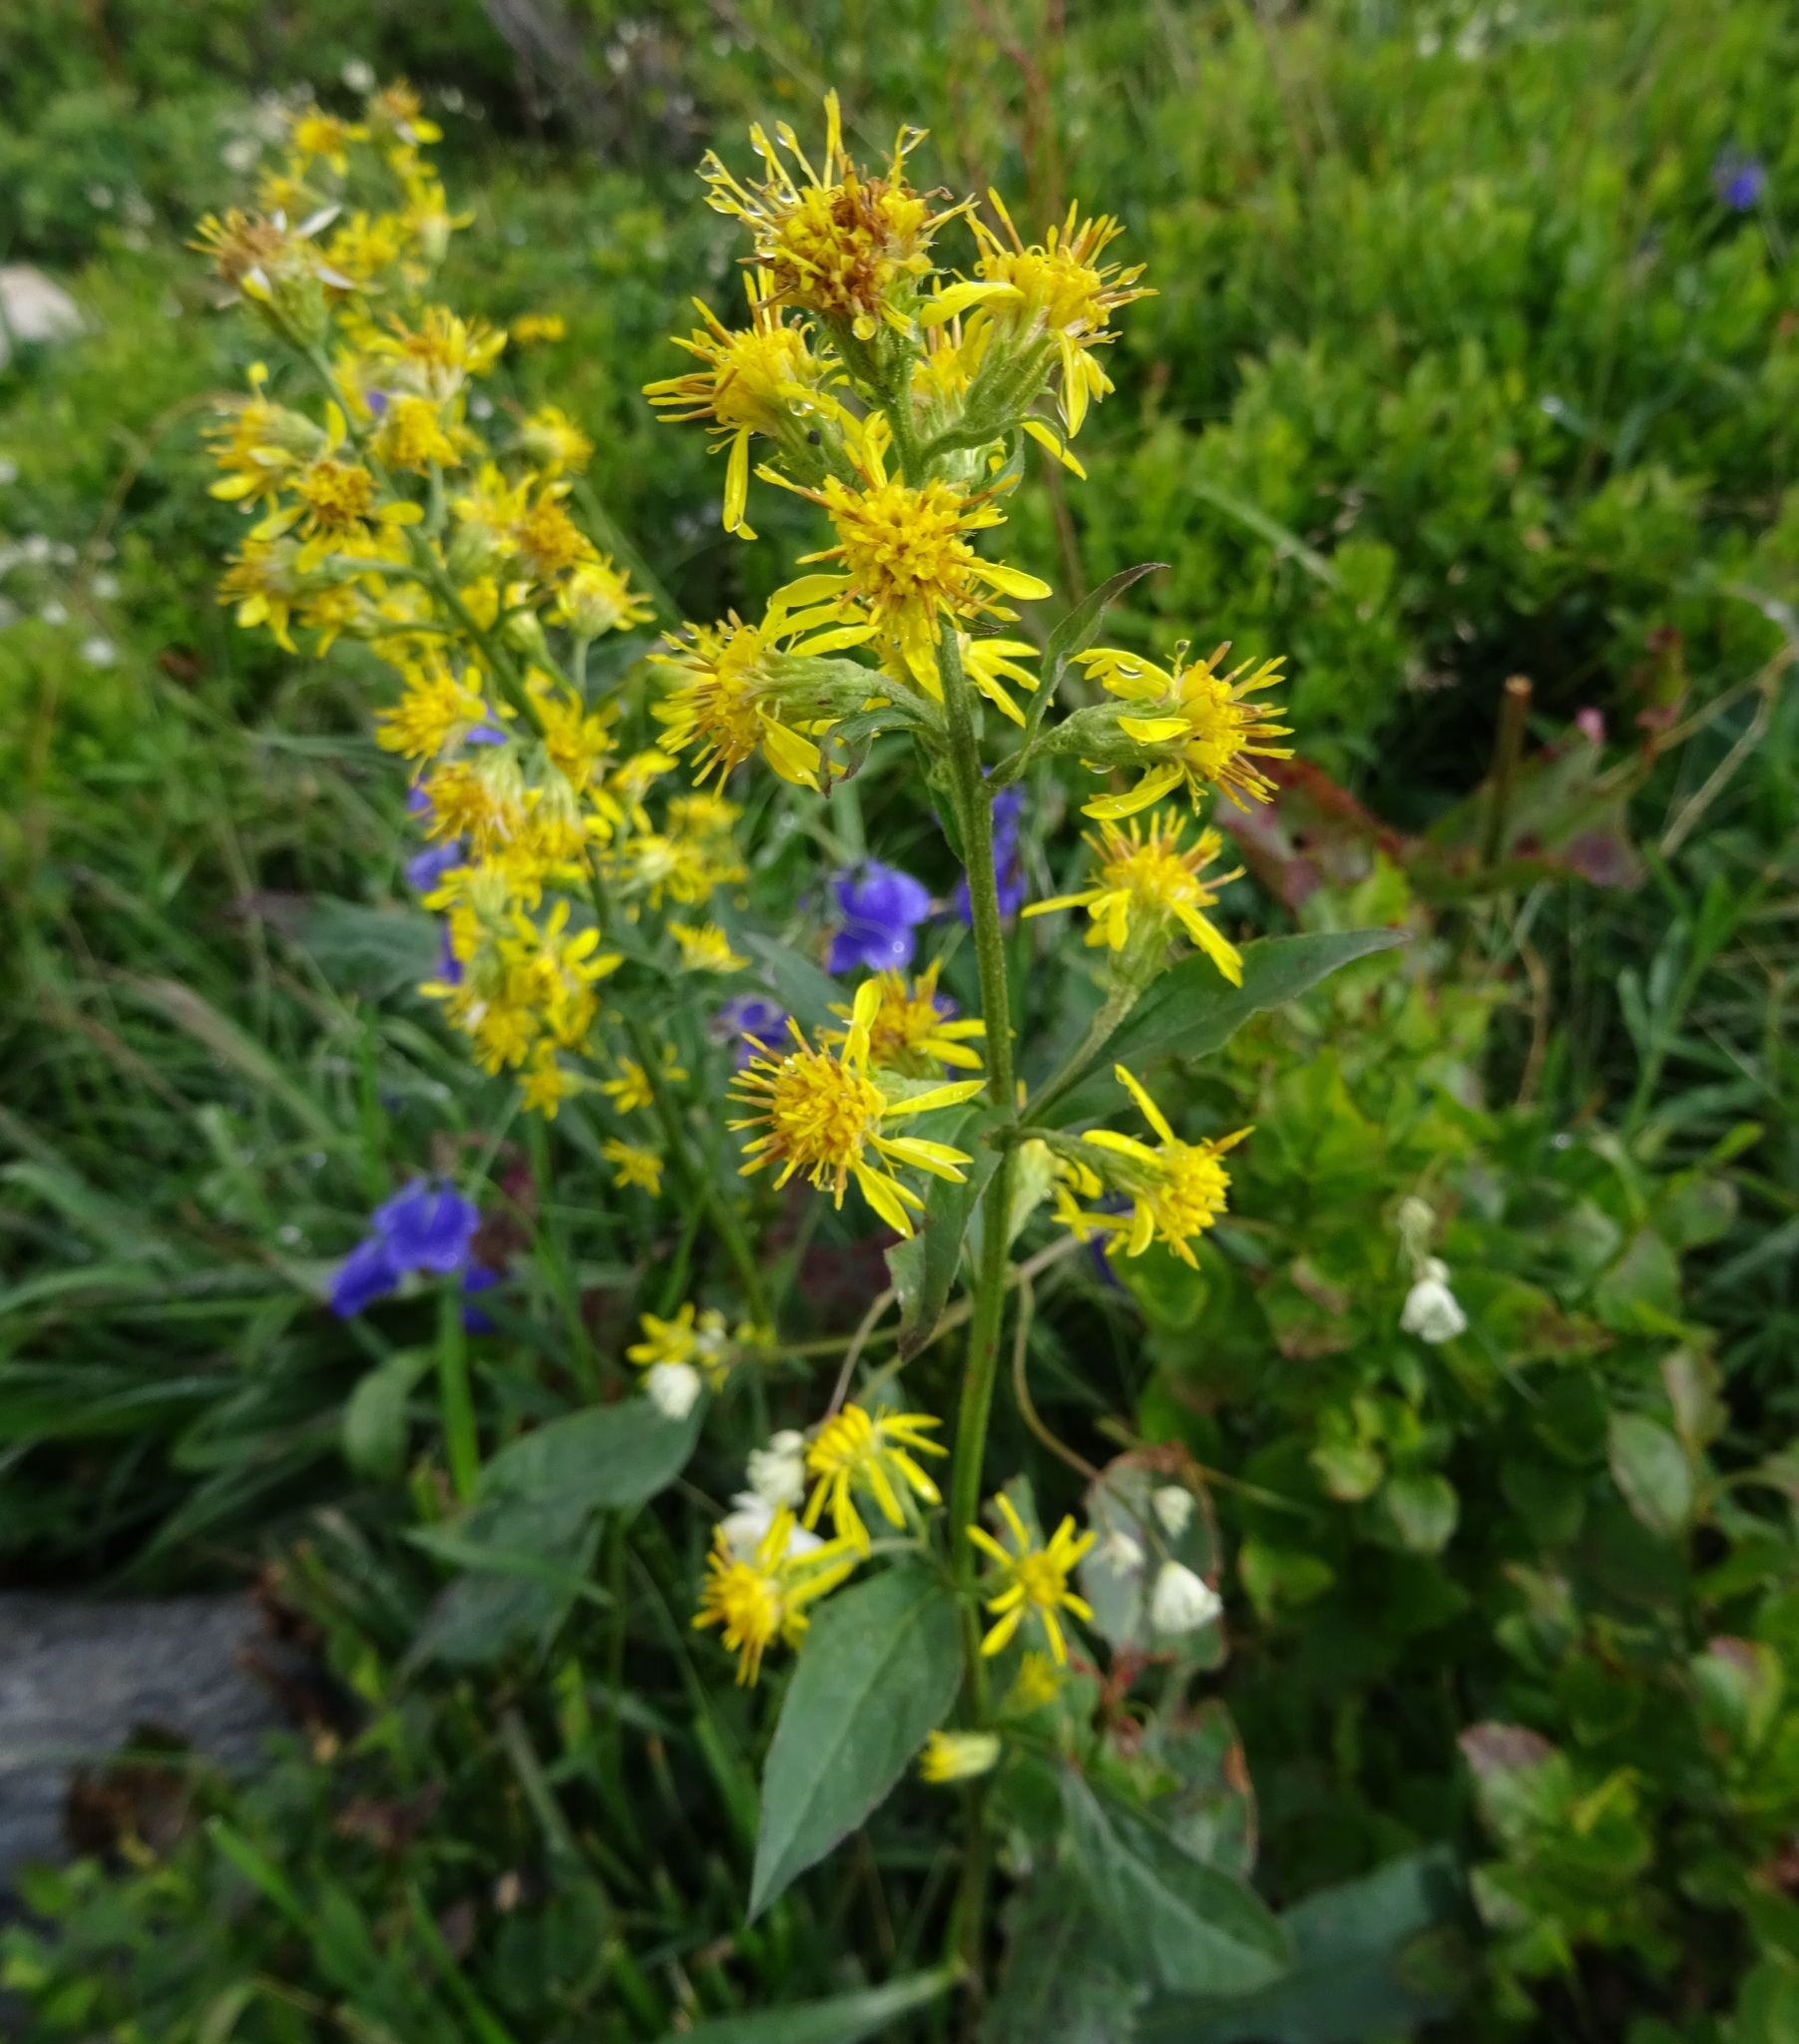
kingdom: Plantae
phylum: Tracheophyta
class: Magnoliopsida
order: Asterales
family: Asteraceae
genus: Solidago
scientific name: Solidago virgaurea
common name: Goldenrod
